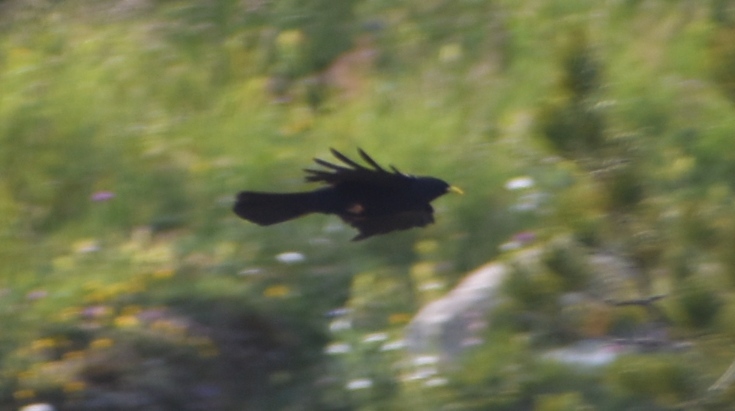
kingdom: Animalia
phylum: Chordata
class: Aves
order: Passeriformes
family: Corvidae
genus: Pyrrhocorax
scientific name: Pyrrhocorax graculus
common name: Alpine chough
